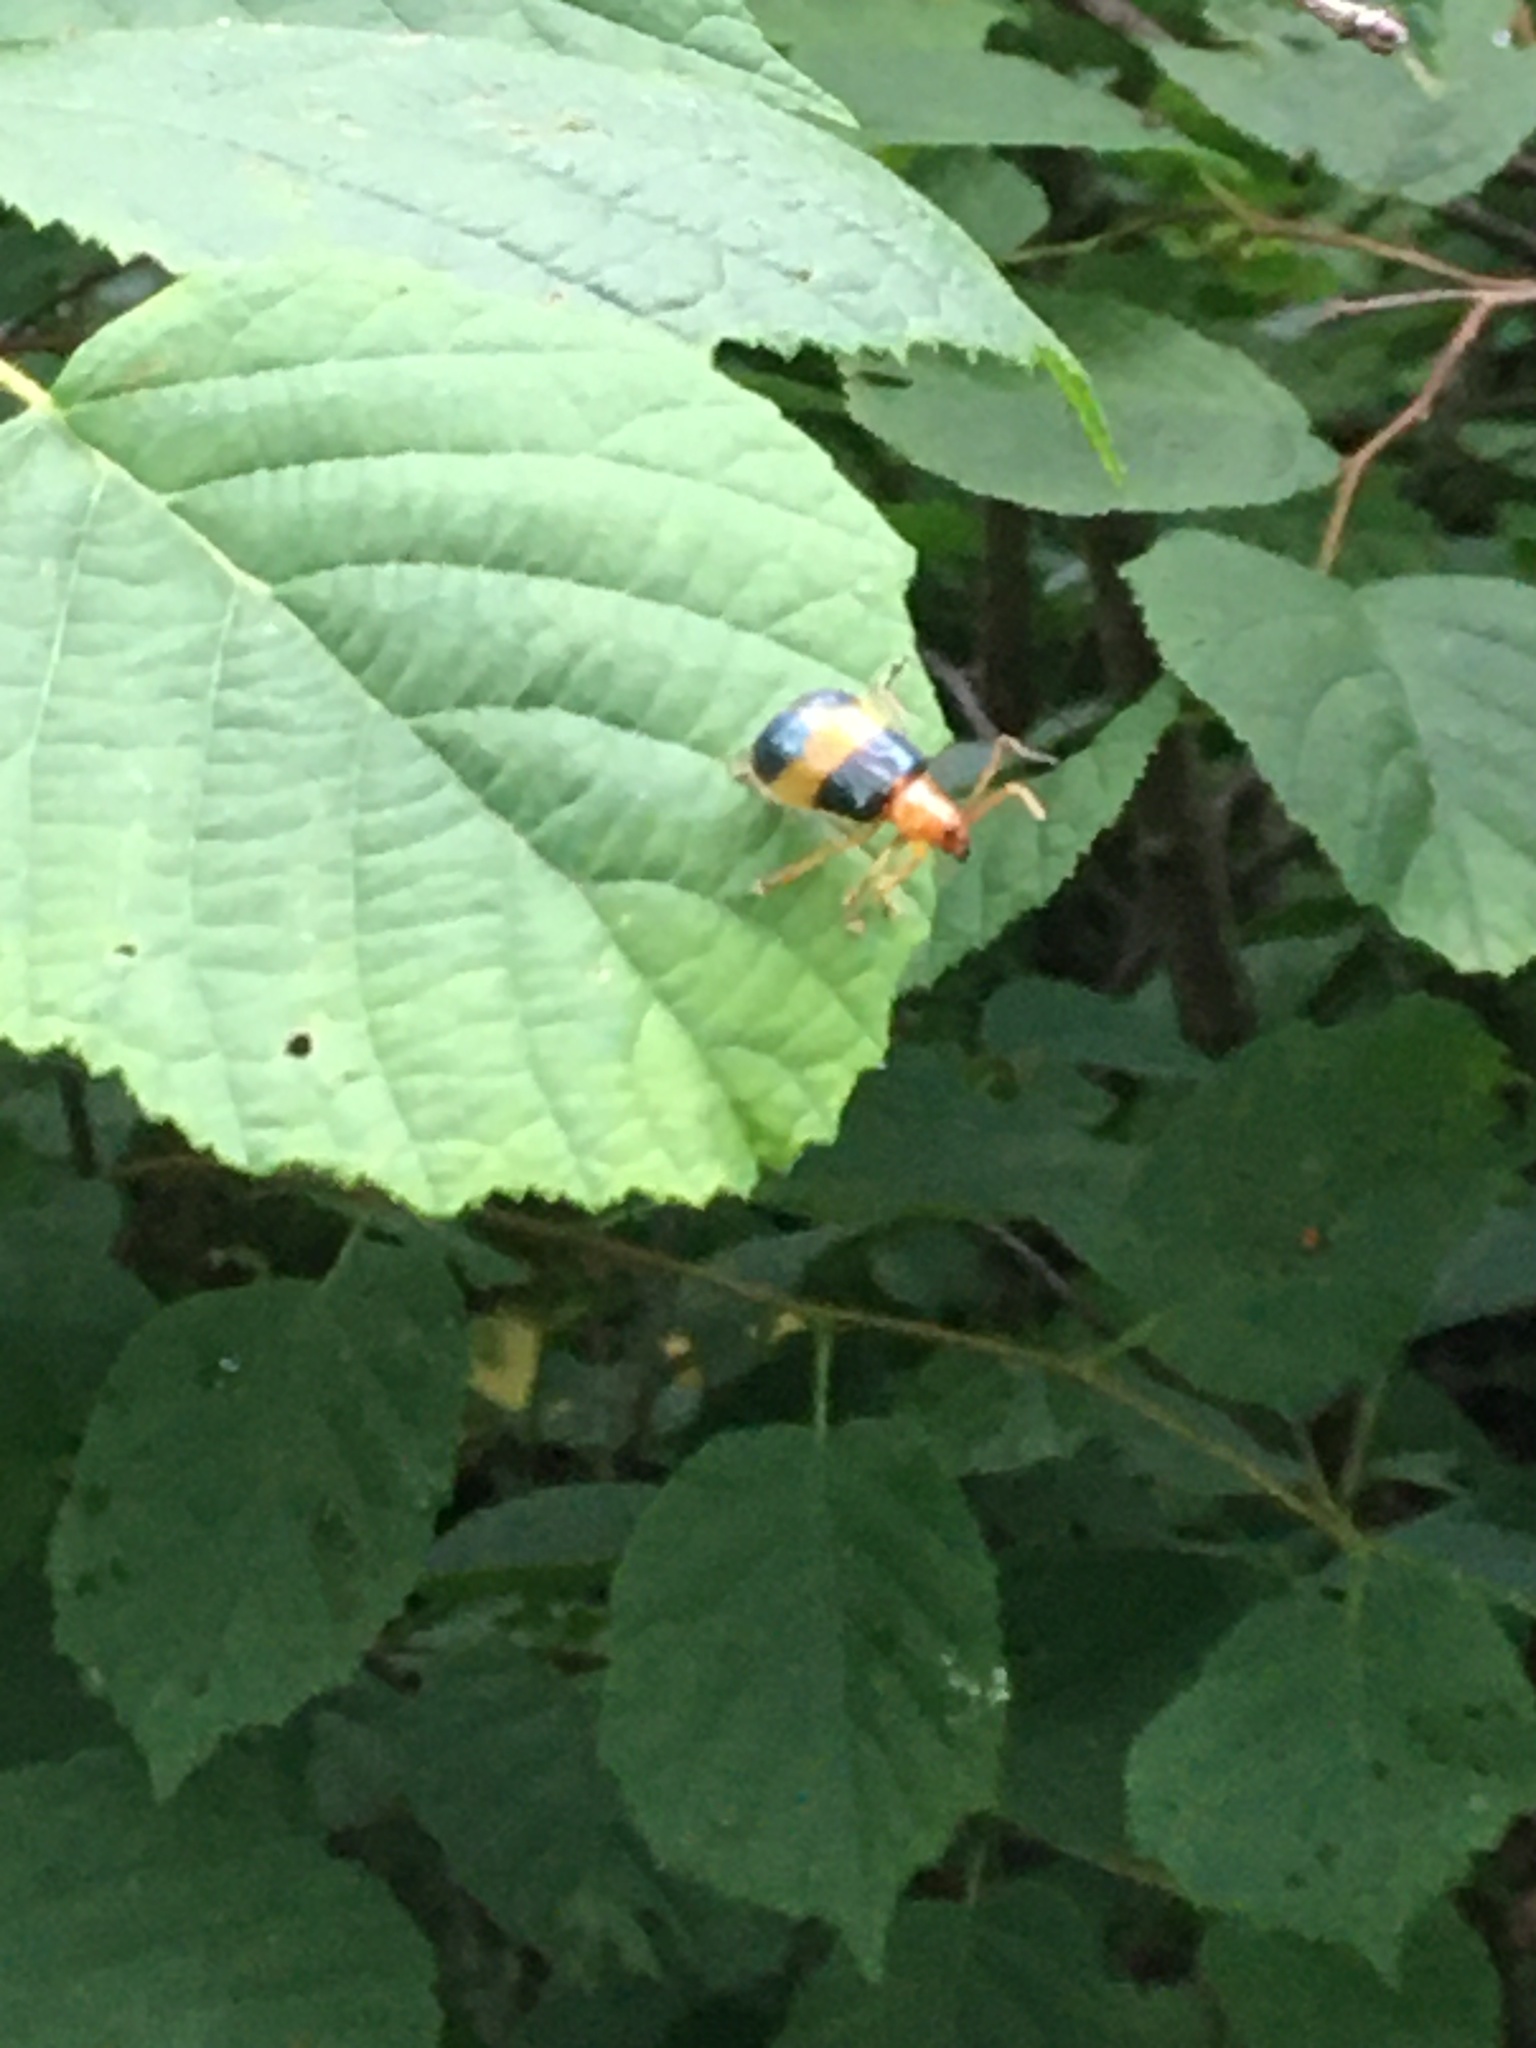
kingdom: Animalia
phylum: Arthropoda
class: Insecta
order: Coleoptera
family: Chrysomelidae
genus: Monocesta
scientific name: Monocesta coryli
